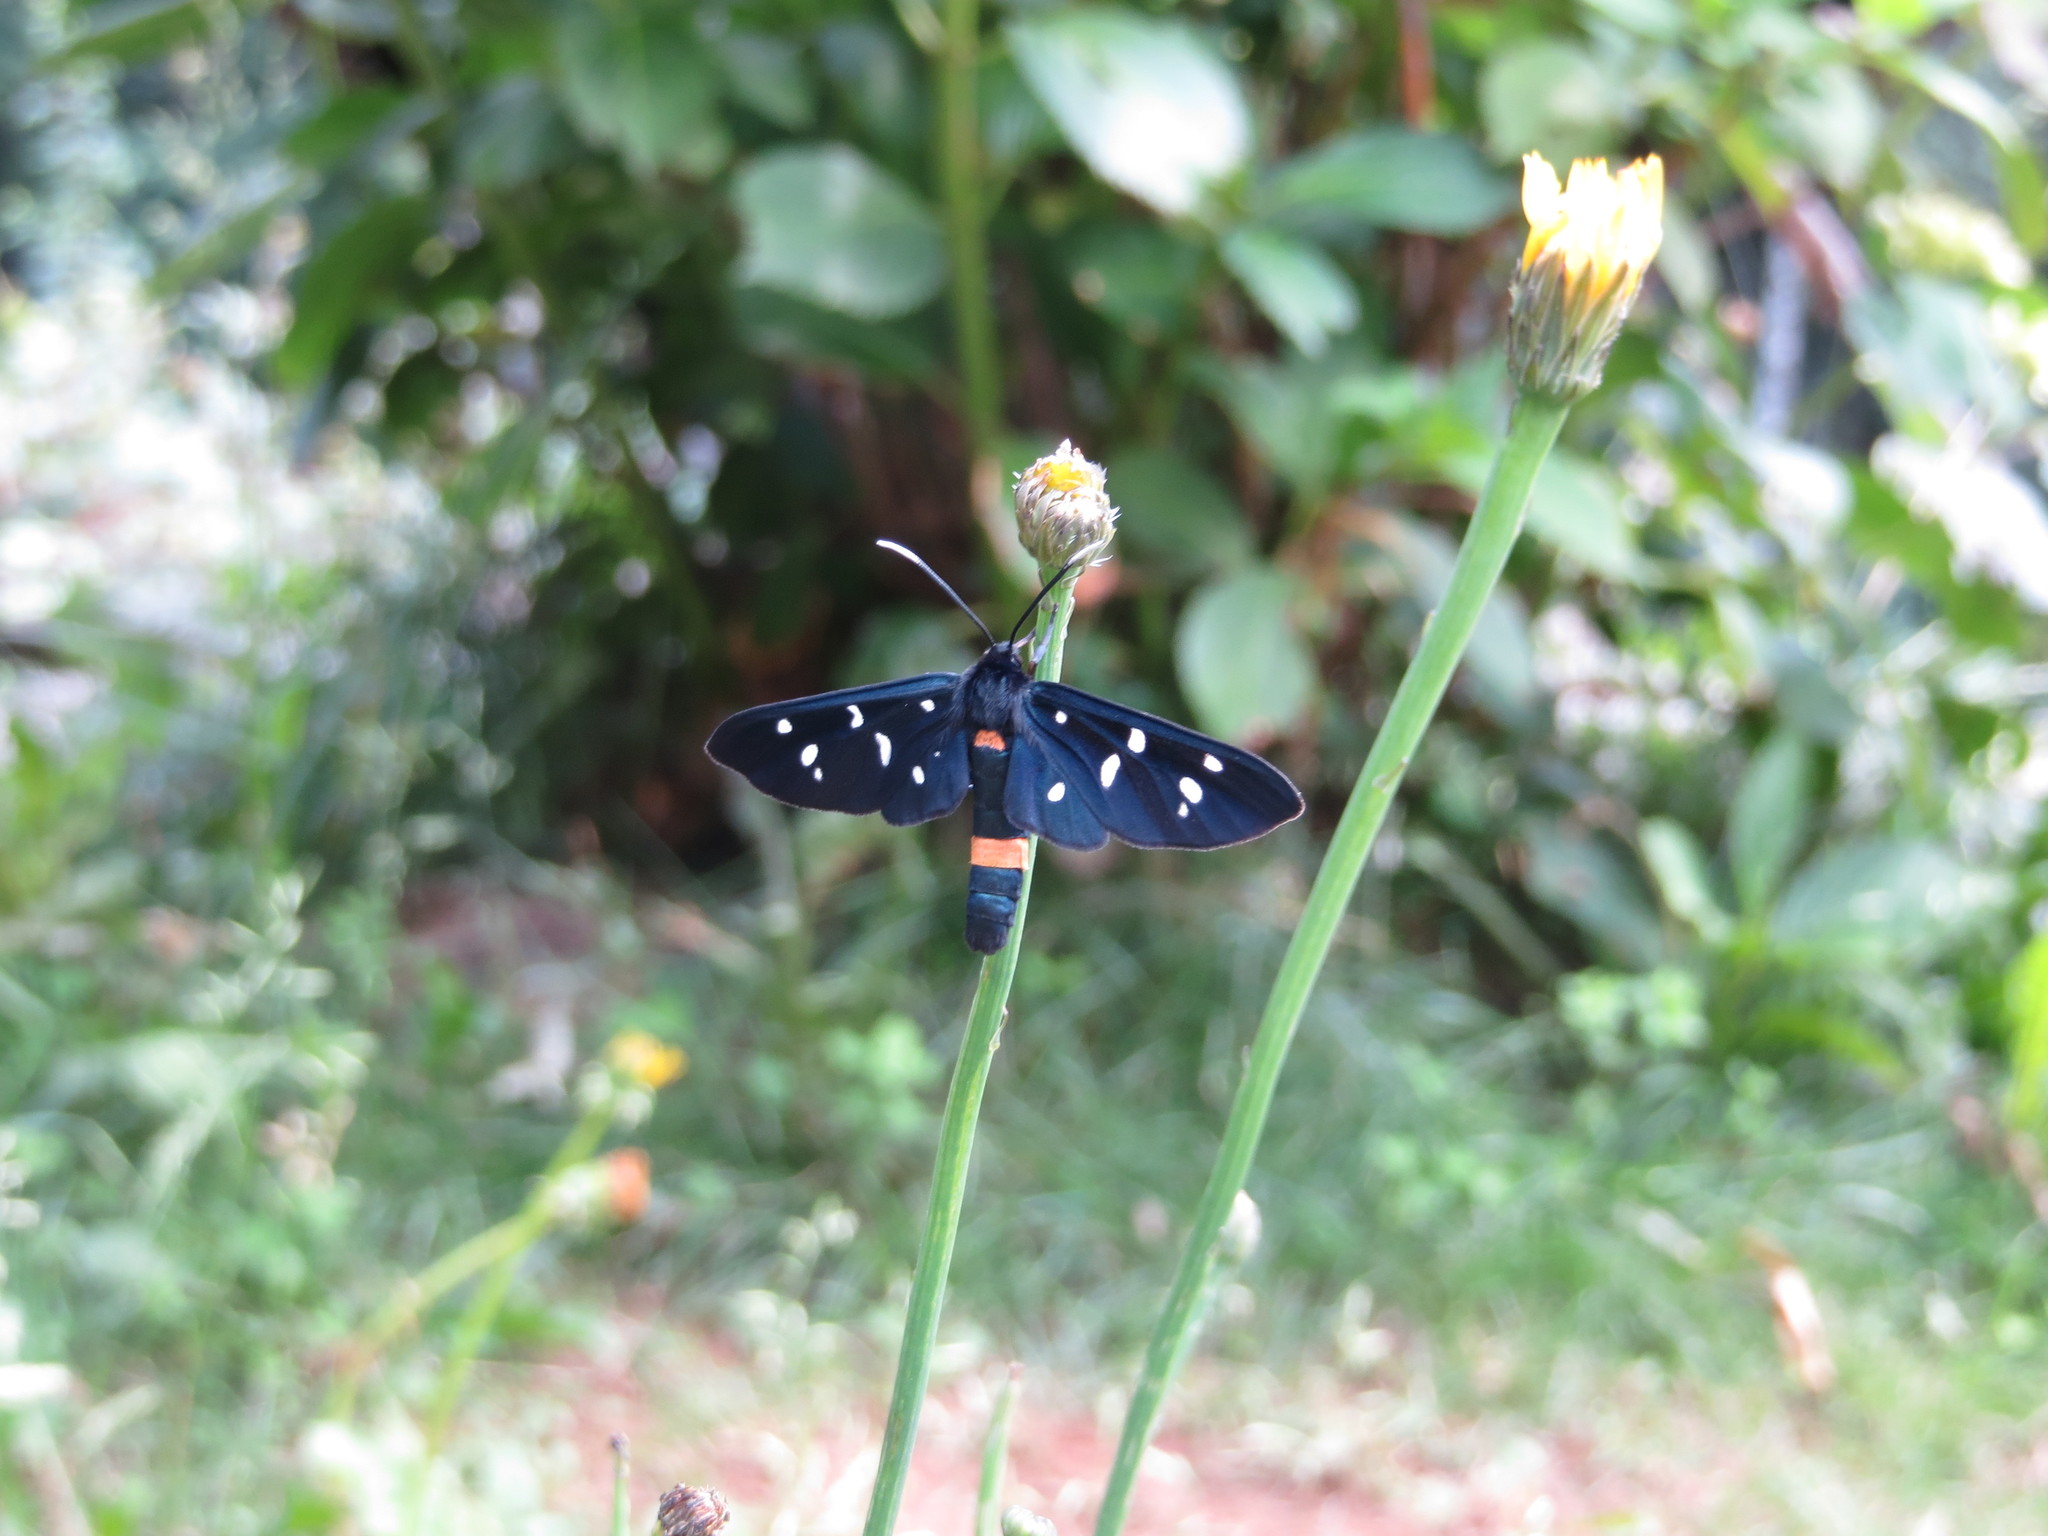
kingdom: Animalia
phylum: Arthropoda
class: Insecta
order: Lepidoptera
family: Erebidae
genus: Amata
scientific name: Amata phegea
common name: Nine-spotted
